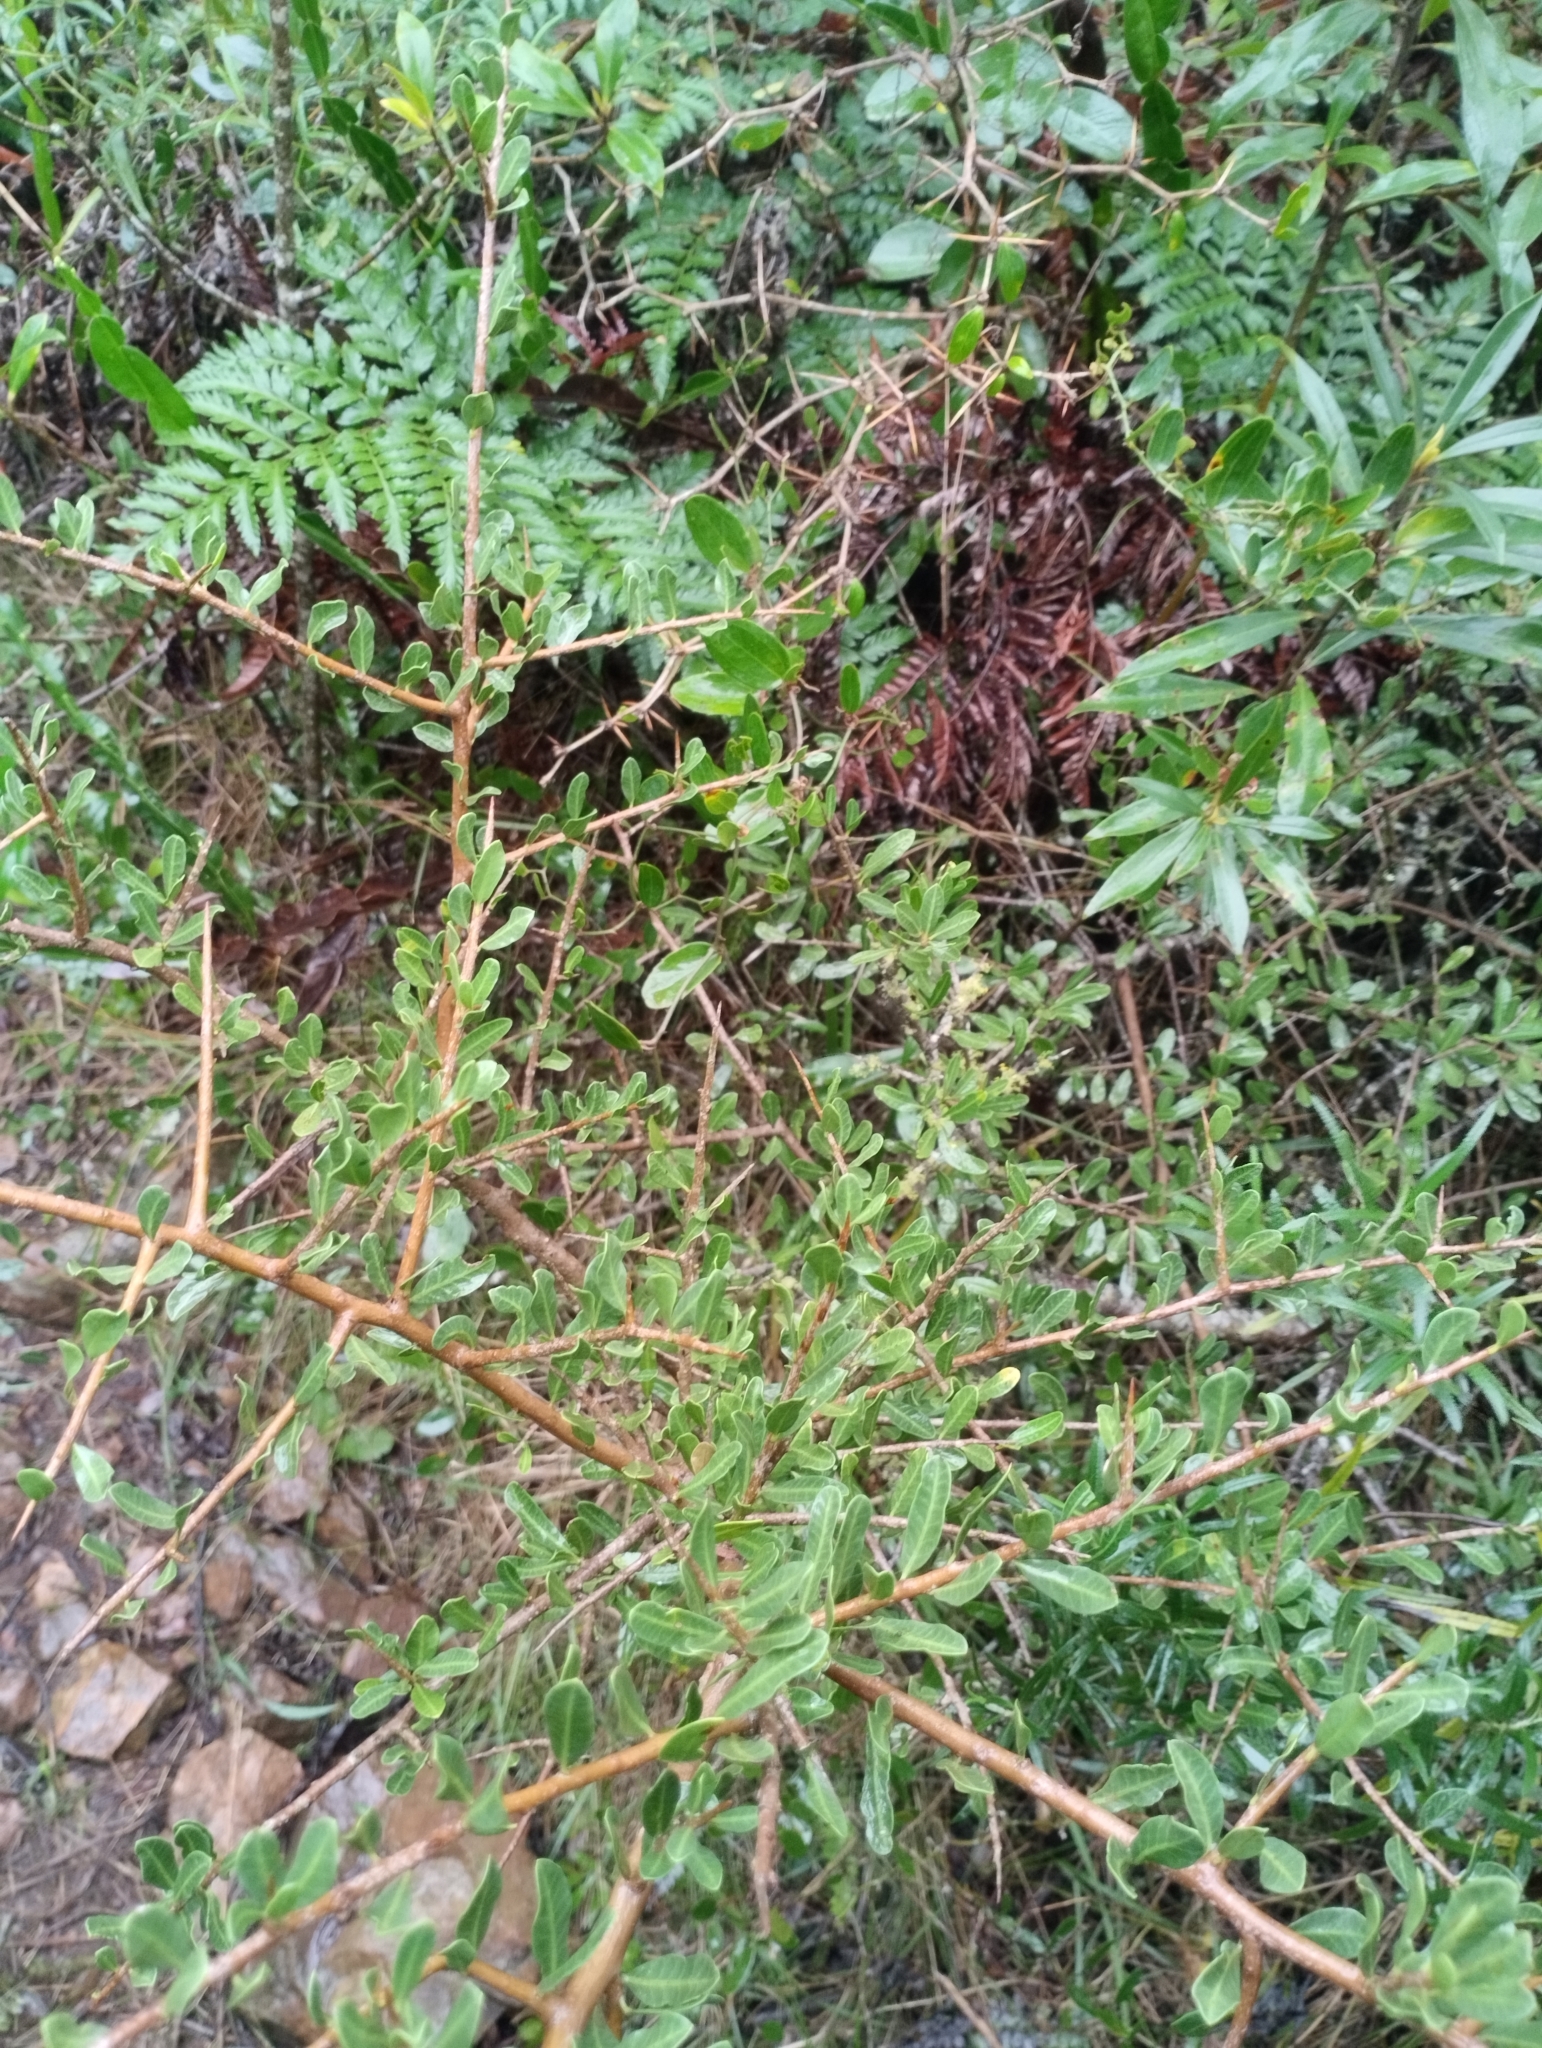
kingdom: Plantae
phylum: Tracheophyta
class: Magnoliopsida
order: Sapindales
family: Anacardiaceae
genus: Schinus
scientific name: Schinus engleri
